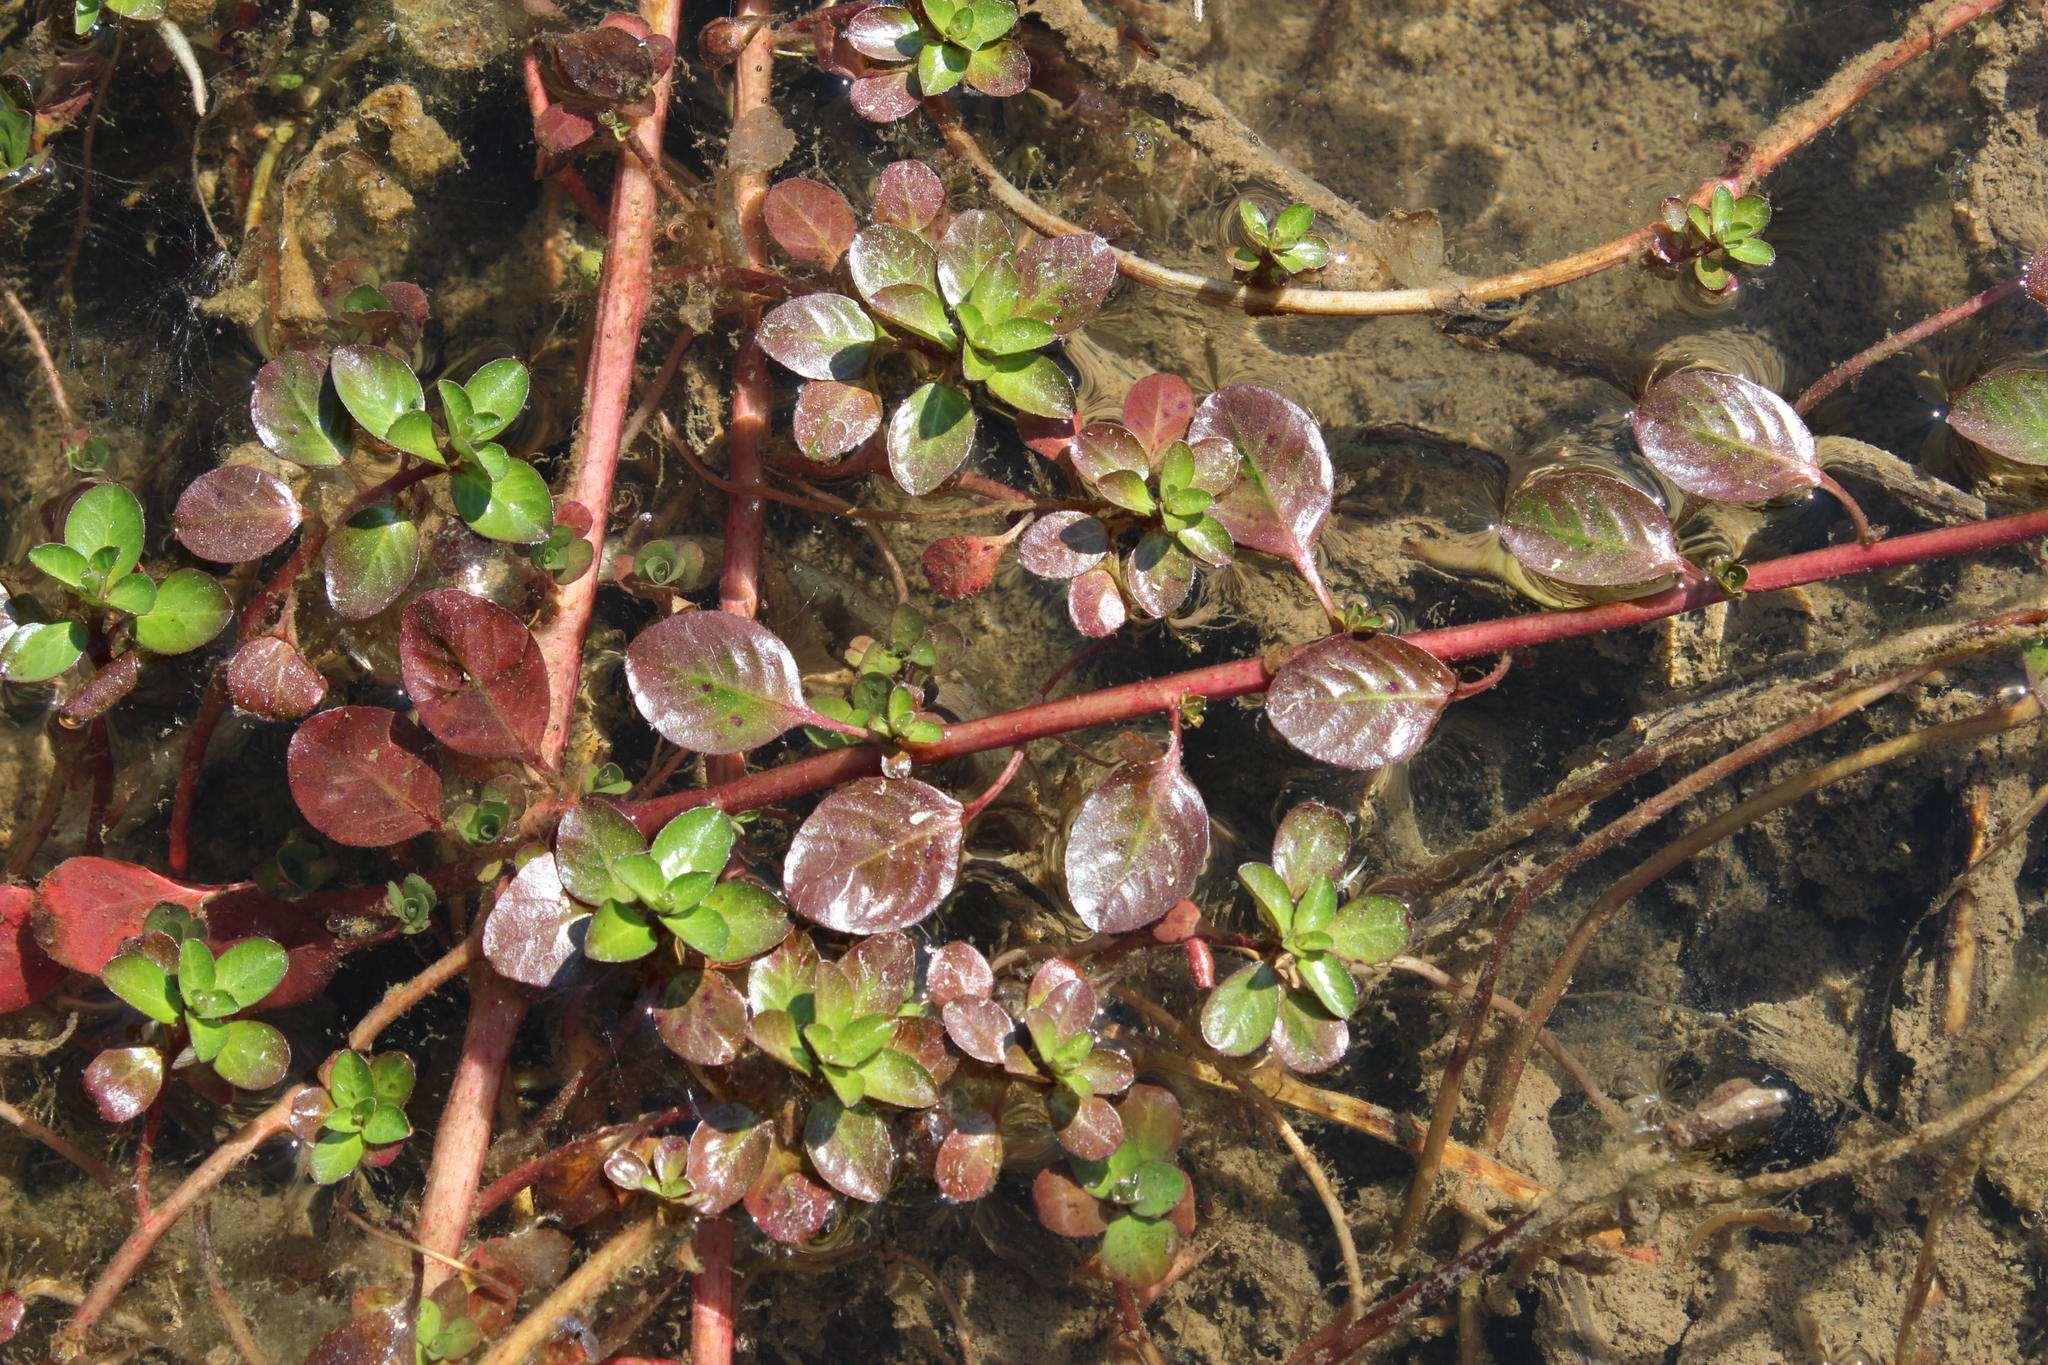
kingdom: Plantae
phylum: Tracheophyta
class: Magnoliopsida
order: Myrtales
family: Onagraceae
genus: Ludwigia
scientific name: Ludwigia adscendens
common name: Creeping water primrose
